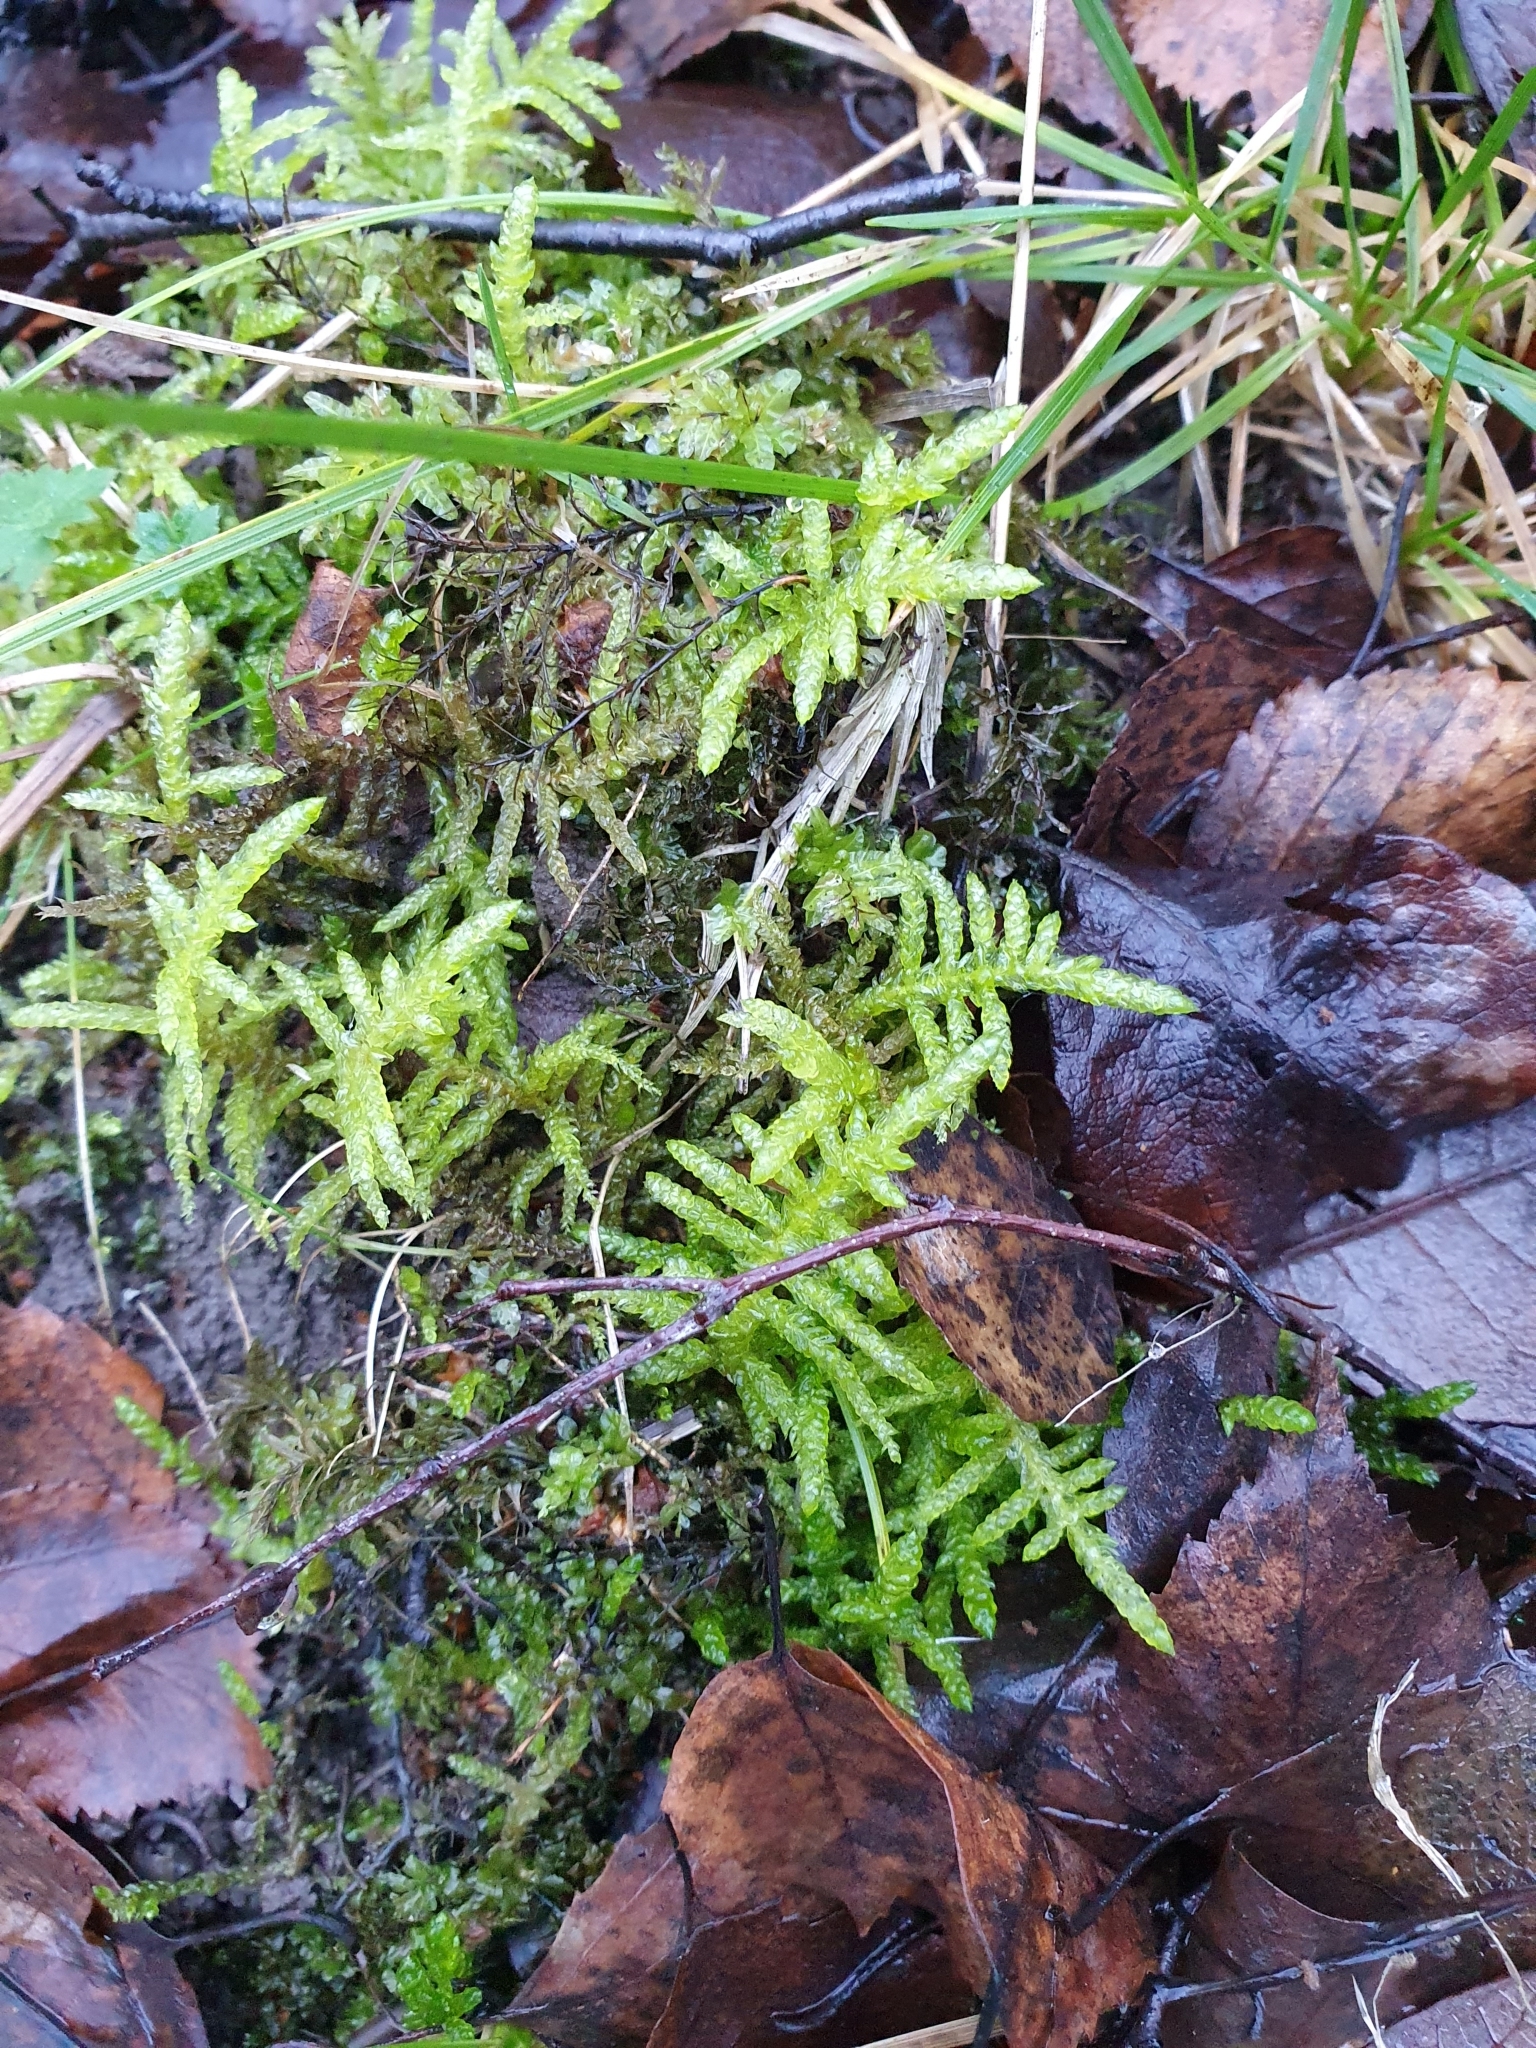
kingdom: Plantae
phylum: Bryophyta
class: Bryopsida
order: Hypnales
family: Brachytheciaceae
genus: Pseudoscleropodium
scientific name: Pseudoscleropodium purum
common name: Neat feather-moss
